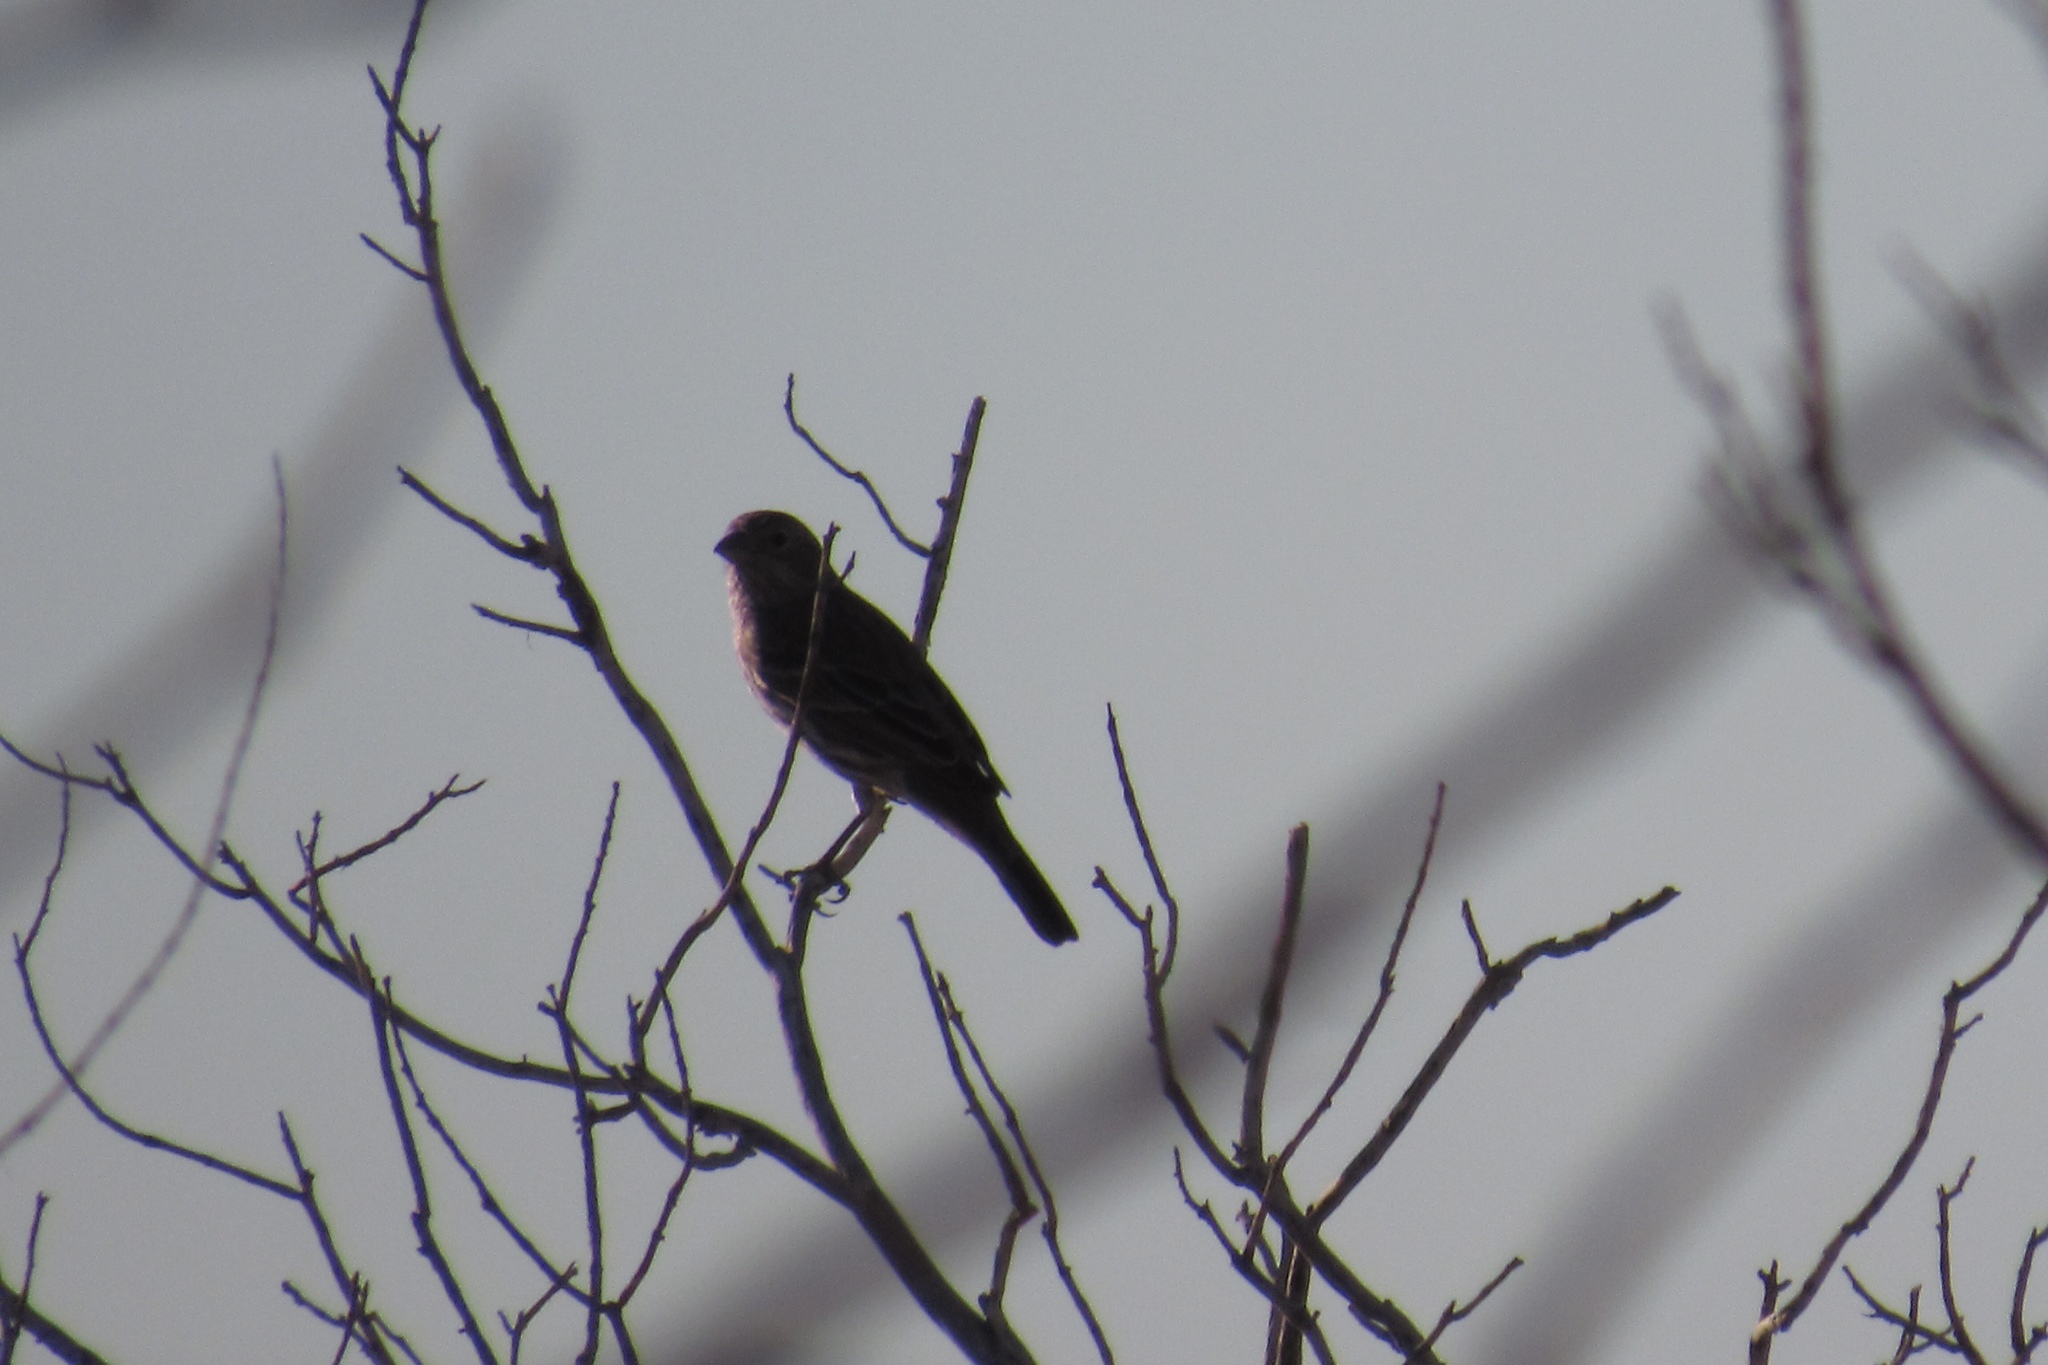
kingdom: Animalia
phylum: Chordata
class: Aves
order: Passeriformes
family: Fringillidae
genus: Haemorhous
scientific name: Haemorhous mexicanus
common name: House finch
